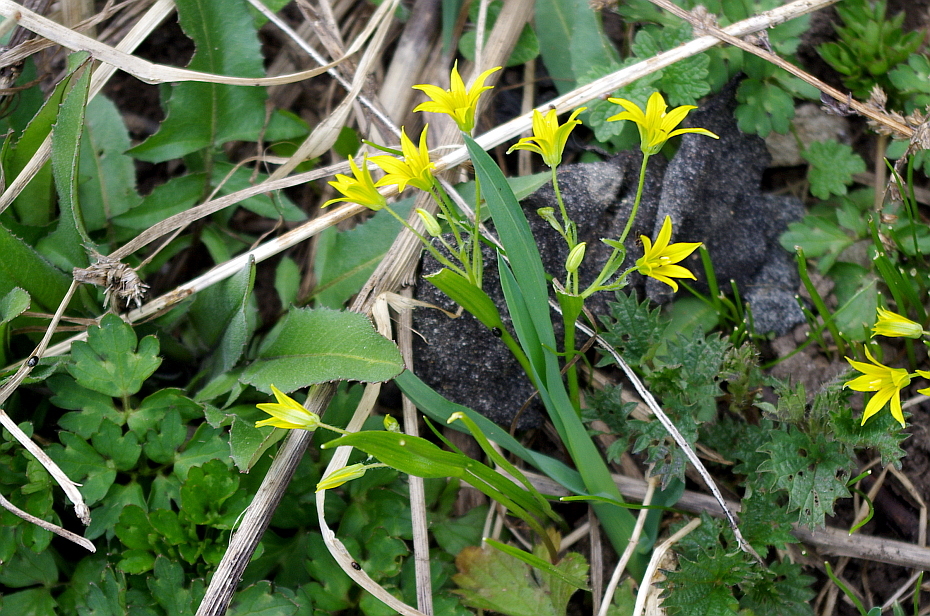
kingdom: Plantae
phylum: Tracheophyta
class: Liliopsida
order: Liliales
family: Liliaceae
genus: Gagea
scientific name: Gagea minima
